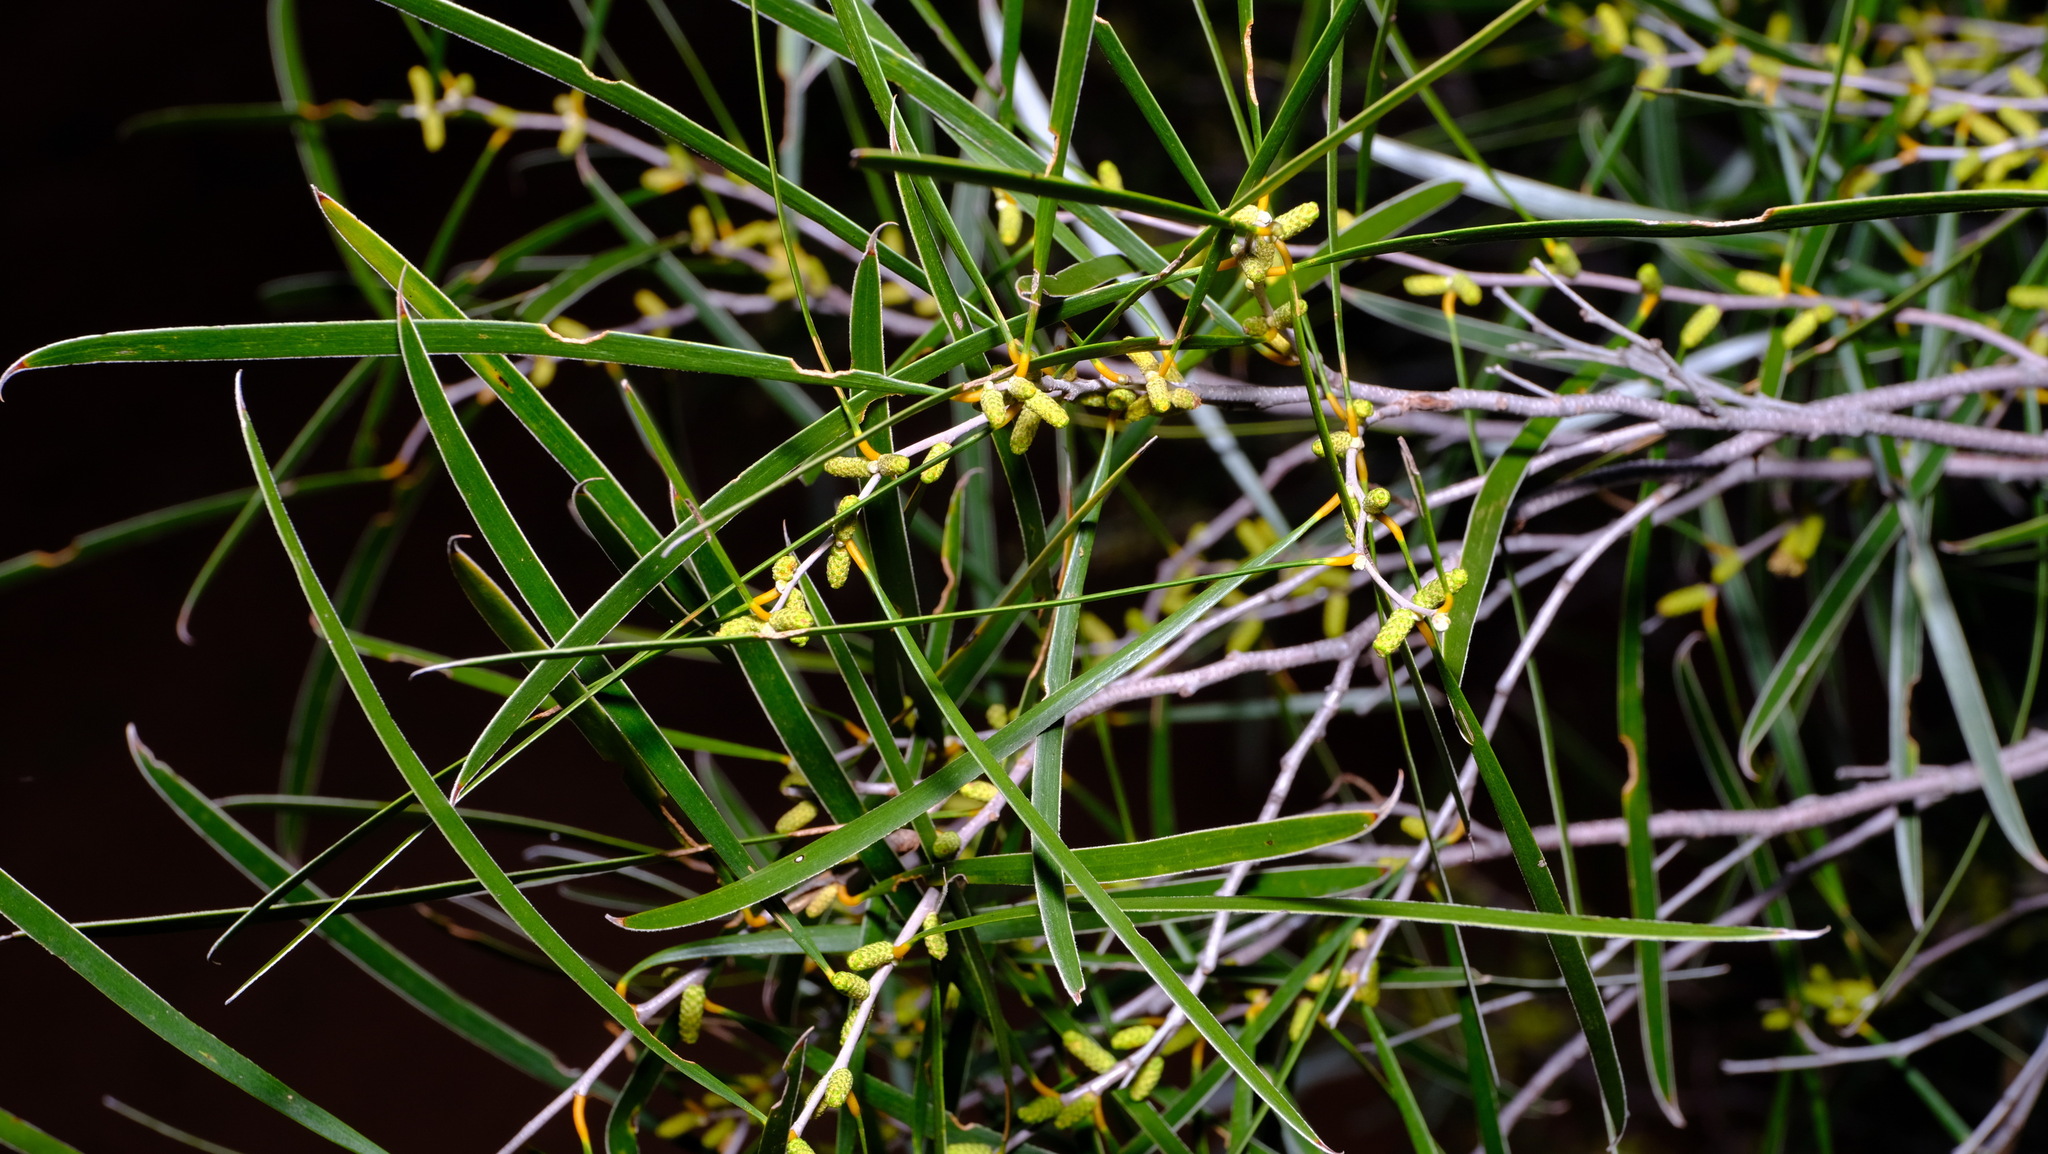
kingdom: Plantae
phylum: Tracheophyta
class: Magnoliopsida
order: Fabales
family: Fabaceae
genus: Acacia
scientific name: Acacia acuminata
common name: Jam wattle
